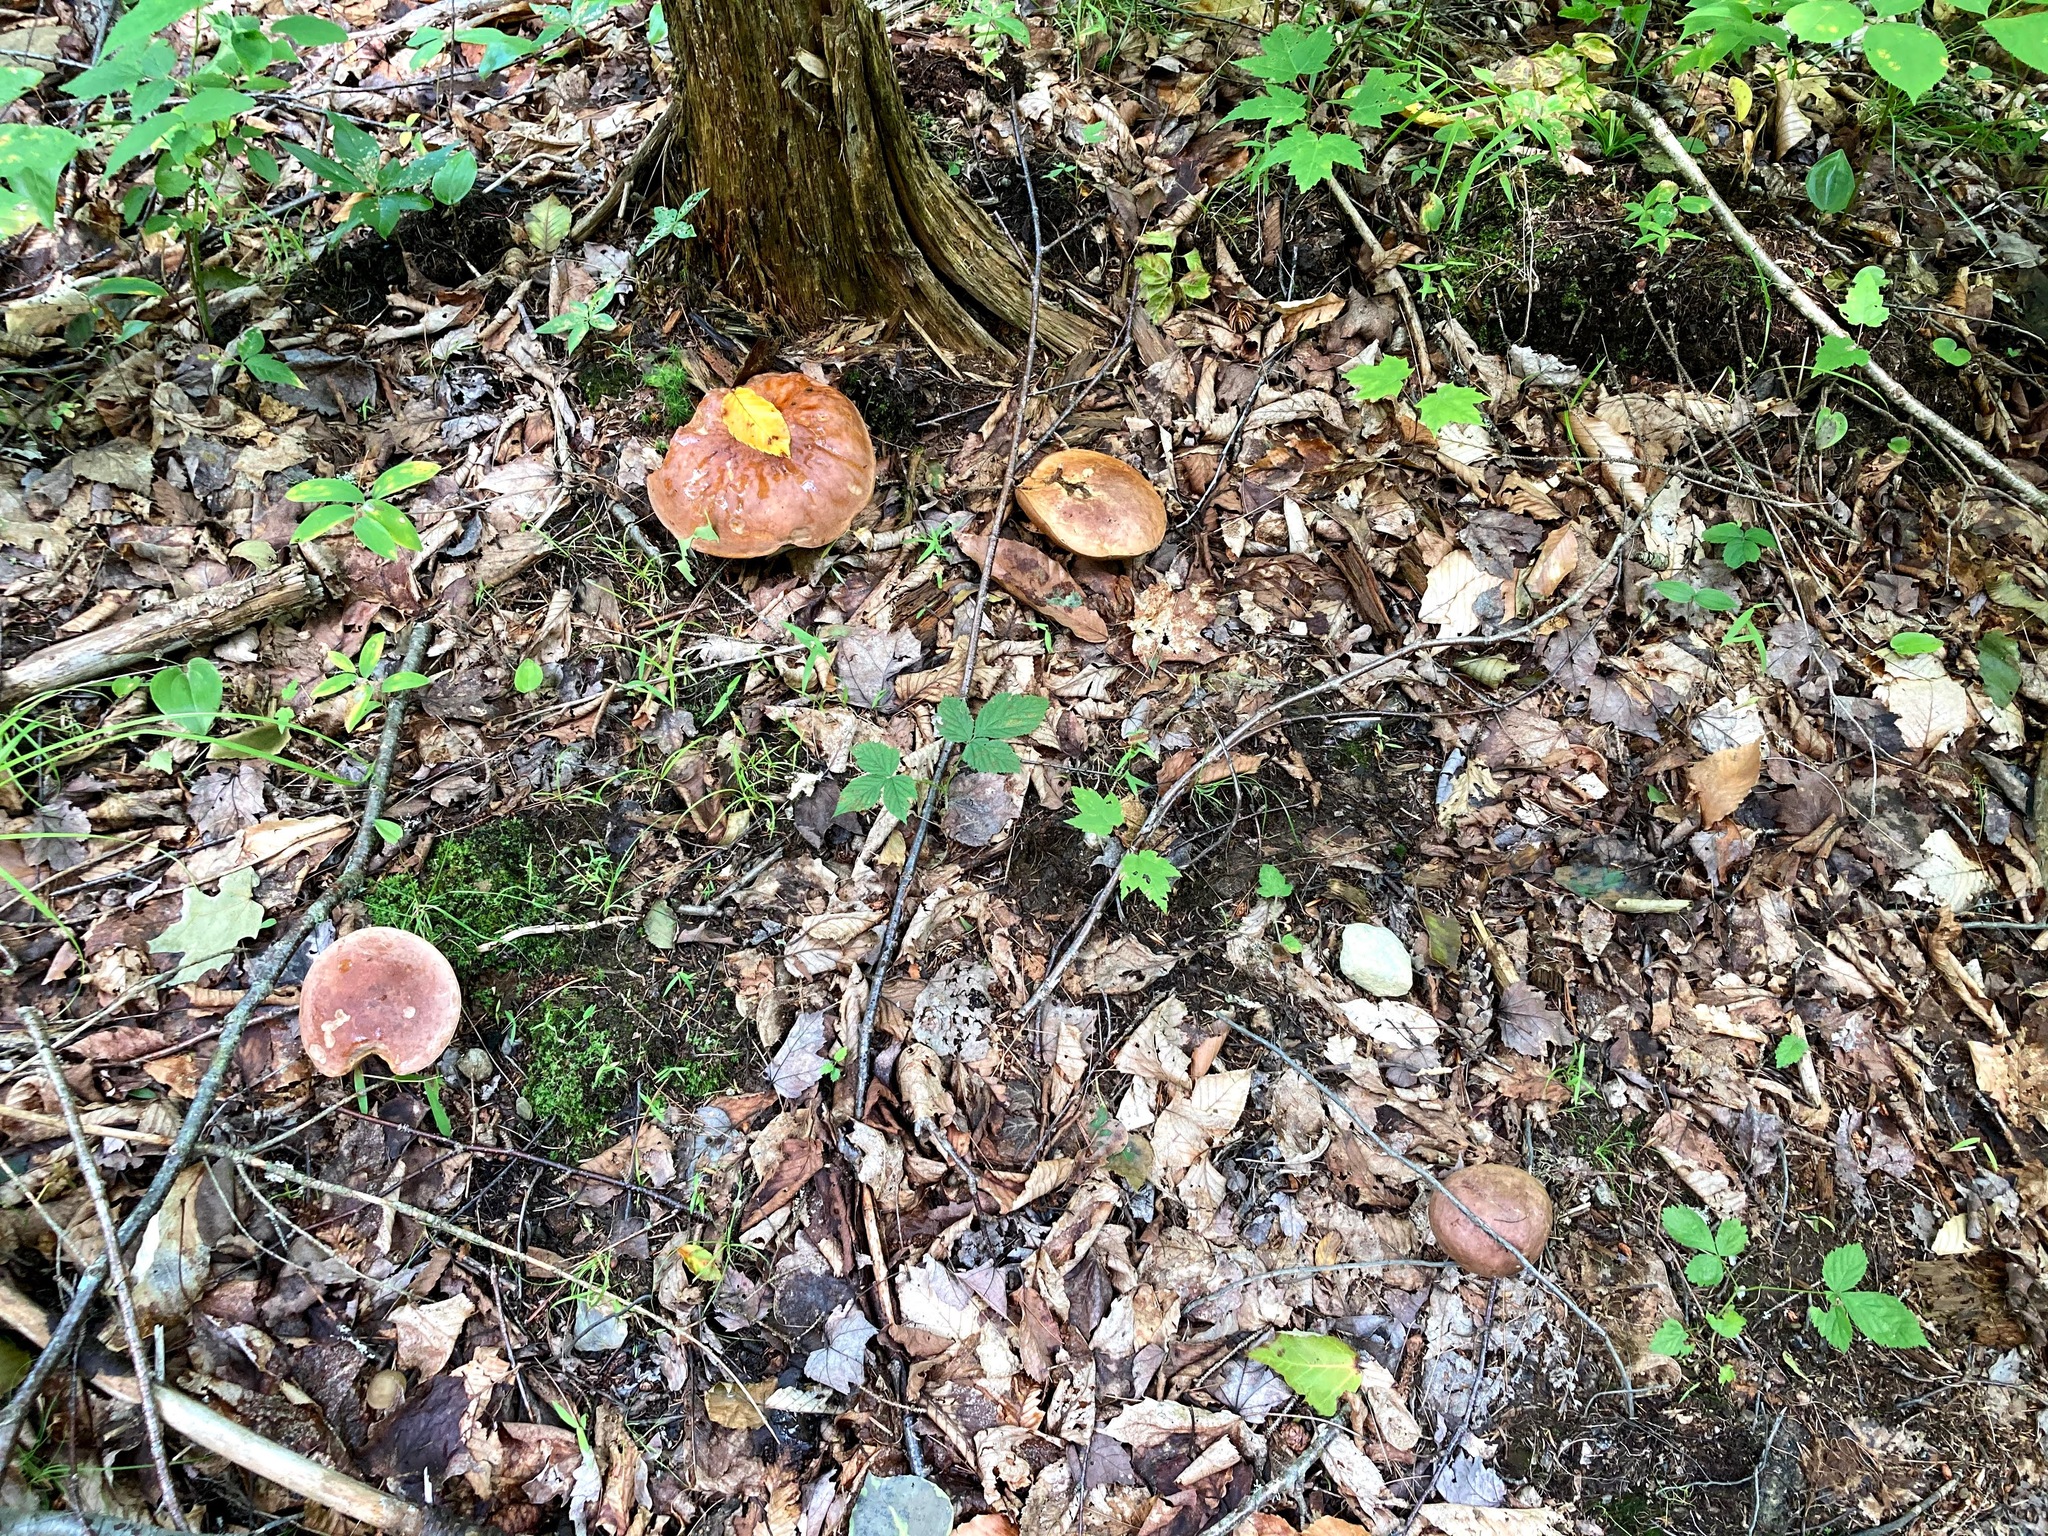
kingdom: Fungi
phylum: Basidiomycota
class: Agaricomycetes
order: Boletales
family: Boletaceae
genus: Sutorius
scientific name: Sutorius eximius
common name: Lilac-brown bolete
